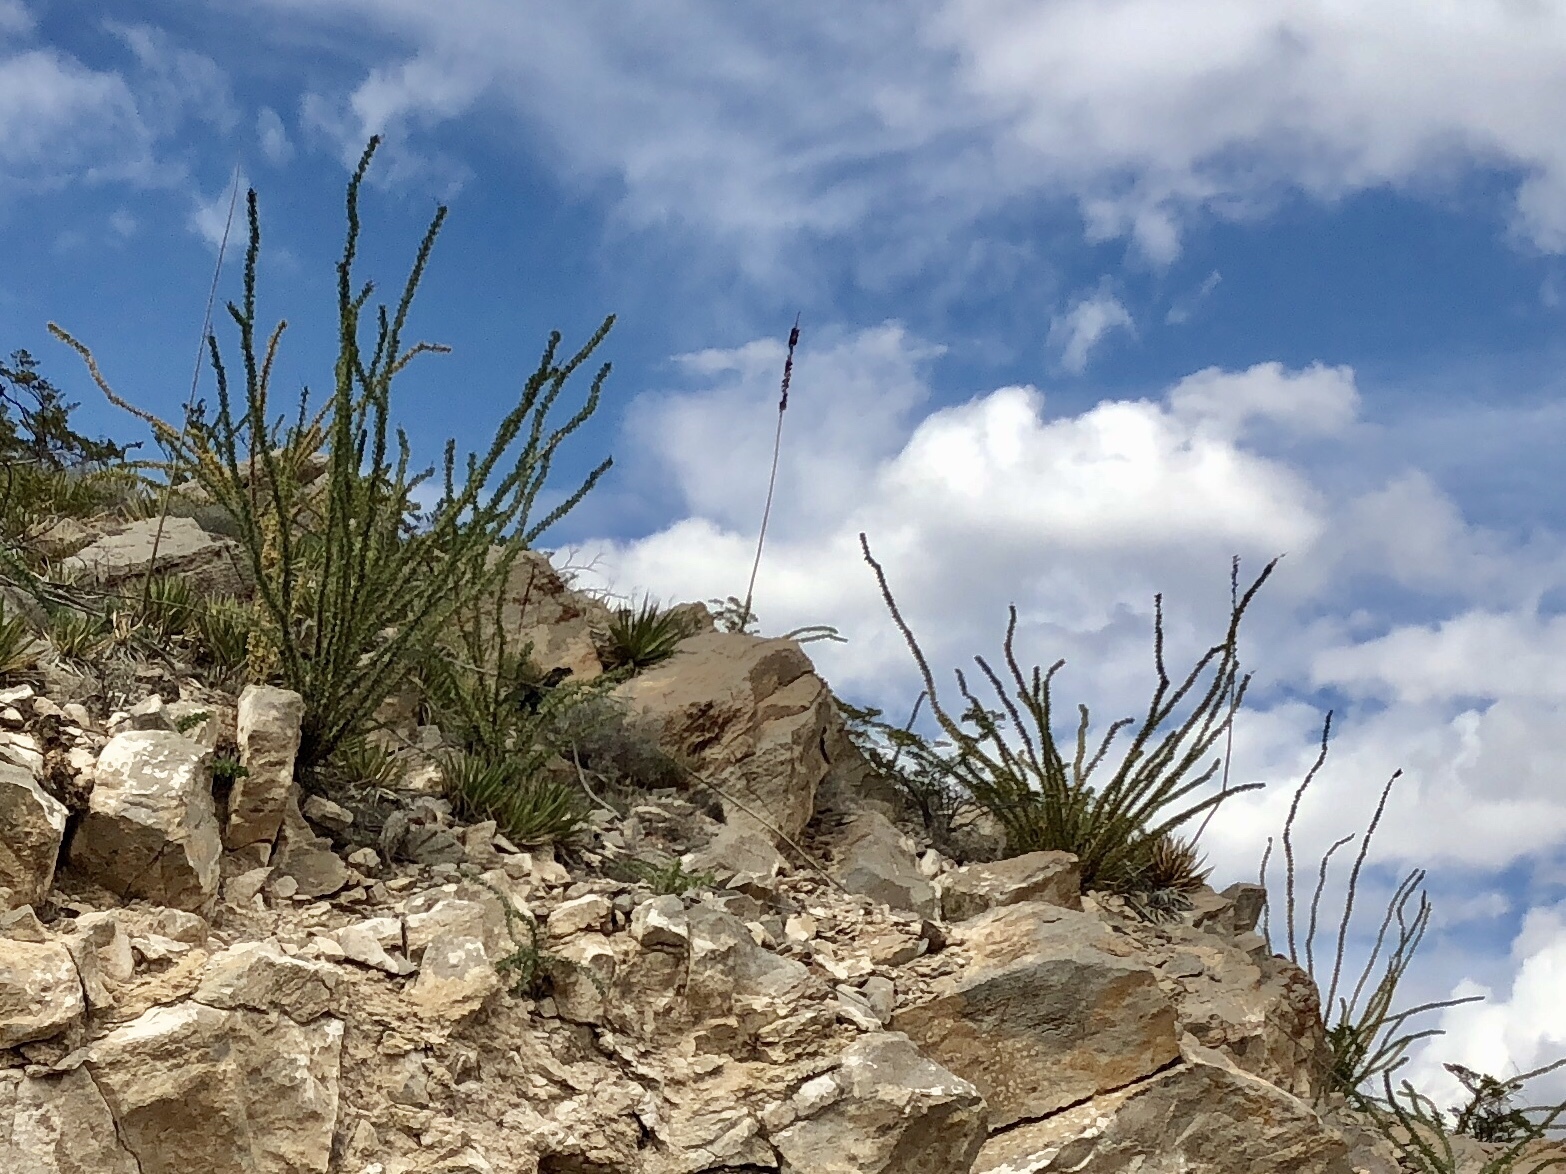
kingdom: Plantae
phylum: Tracheophyta
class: Magnoliopsida
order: Ericales
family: Fouquieriaceae
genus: Fouquieria
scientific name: Fouquieria splendens
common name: Vine-cactus
